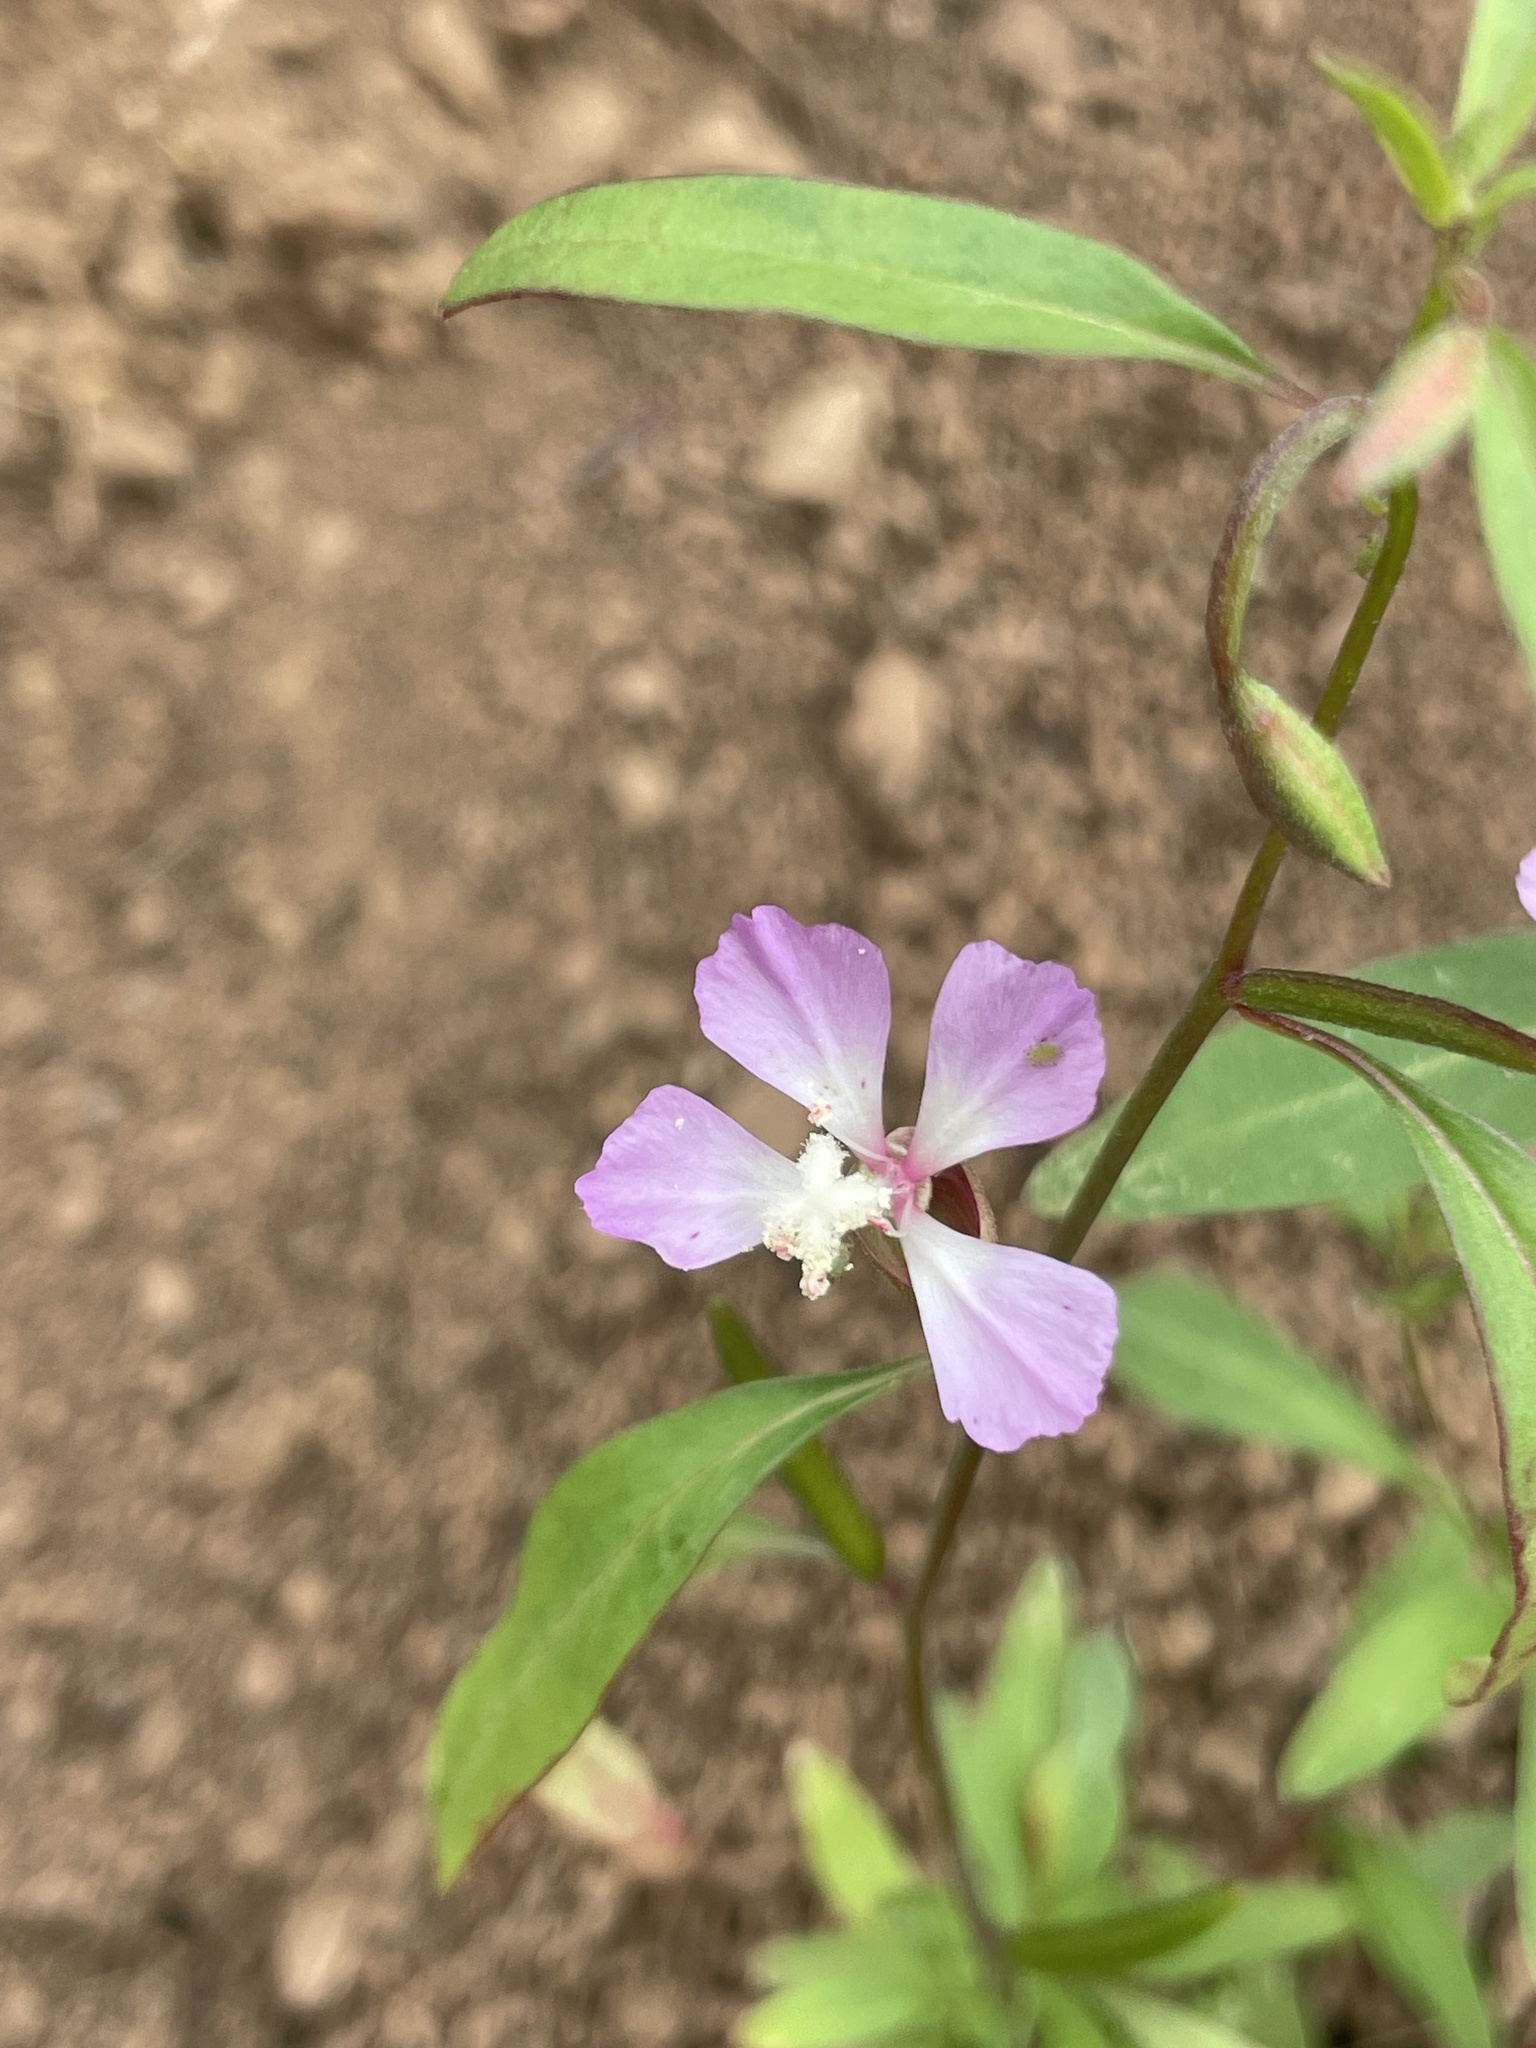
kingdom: Plantae
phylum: Tracheophyta
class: Magnoliopsida
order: Myrtales
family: Onagraceae
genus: Clarkia
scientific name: Clarkia delicata
